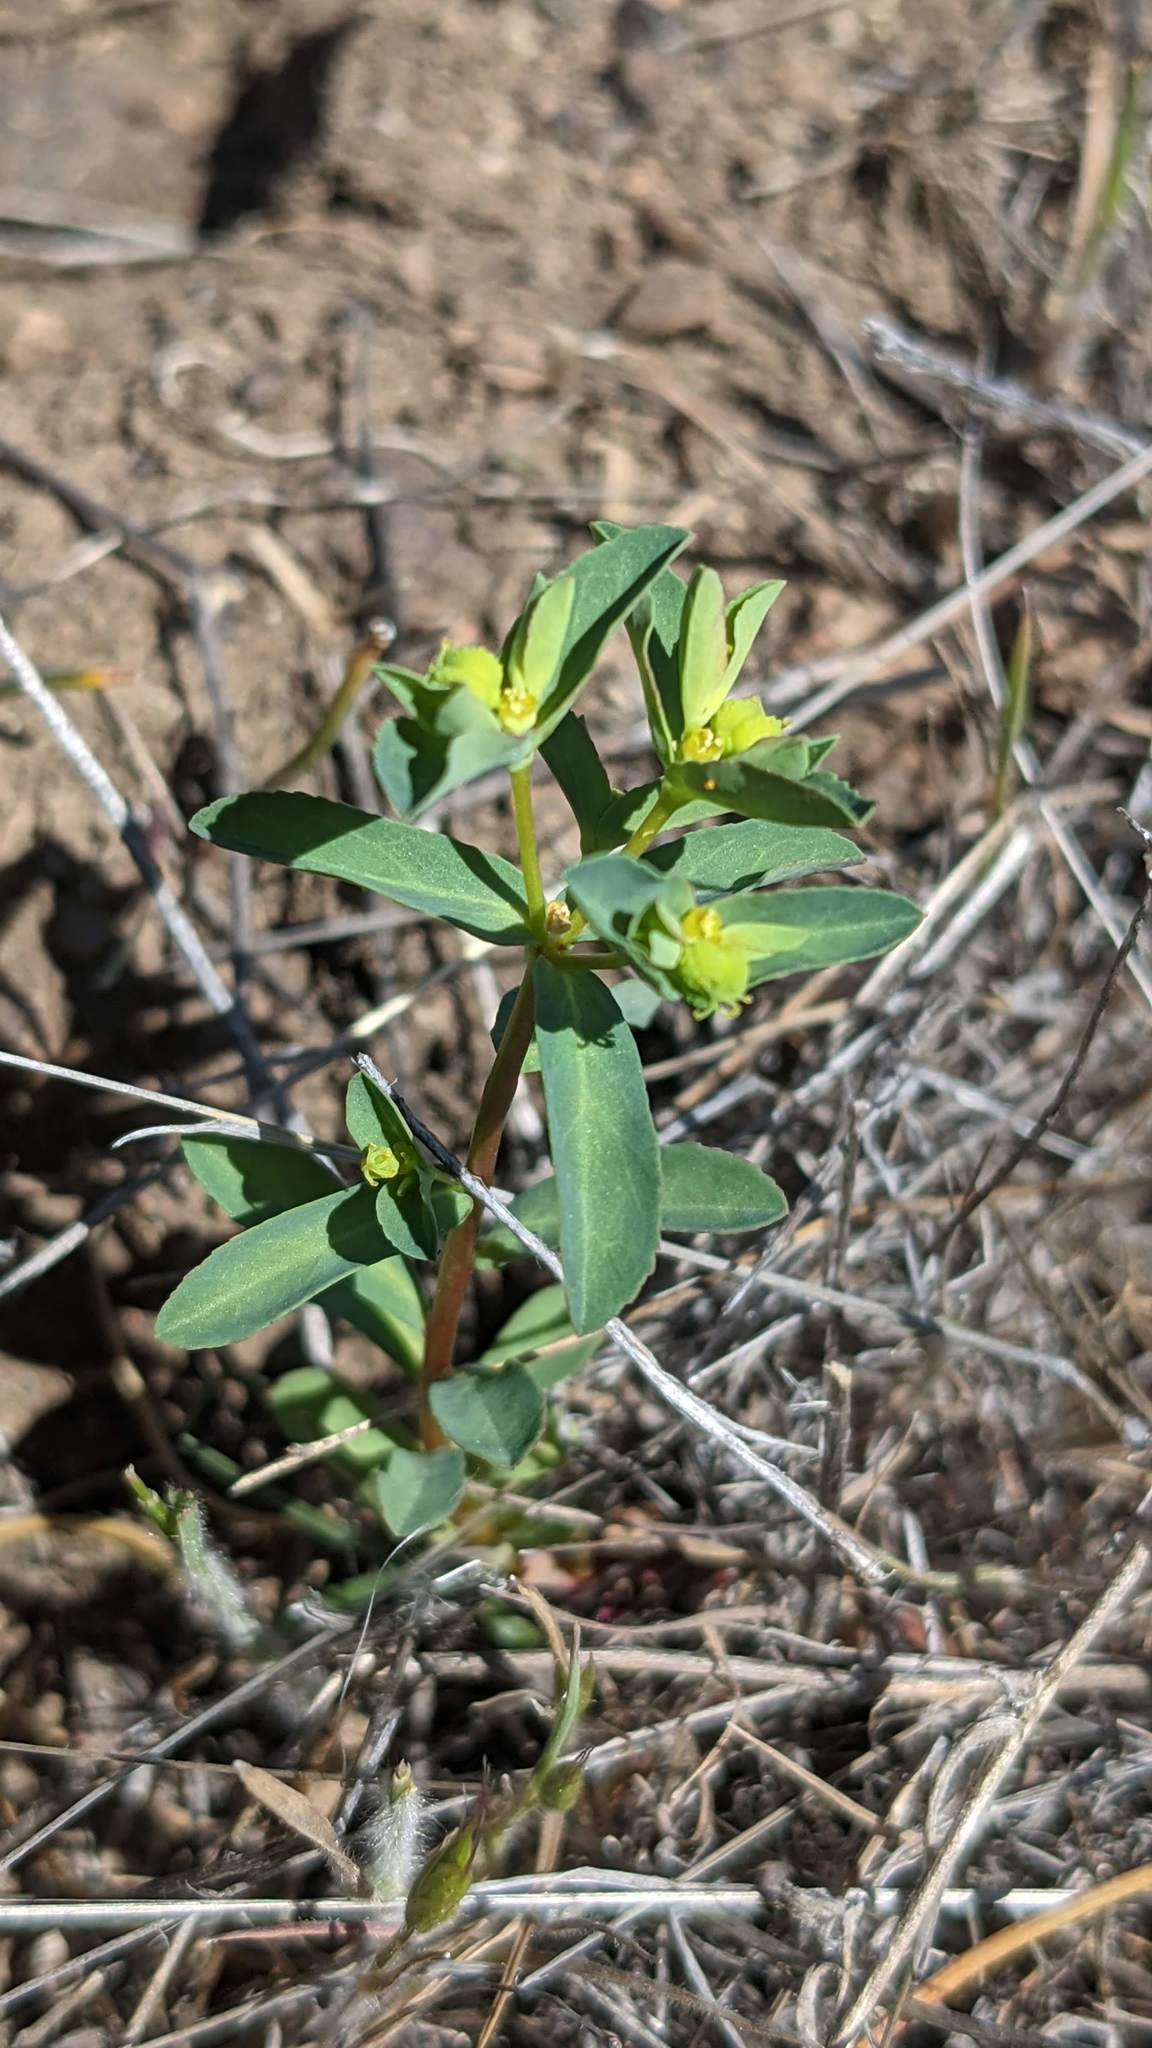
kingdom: Plantae
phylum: Tracheophyta
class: Magnoliopsida
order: Malpighiales
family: Euphorbiaceae
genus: Euphorbia
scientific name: Euphorbia spathulata
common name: Blunt spurge
